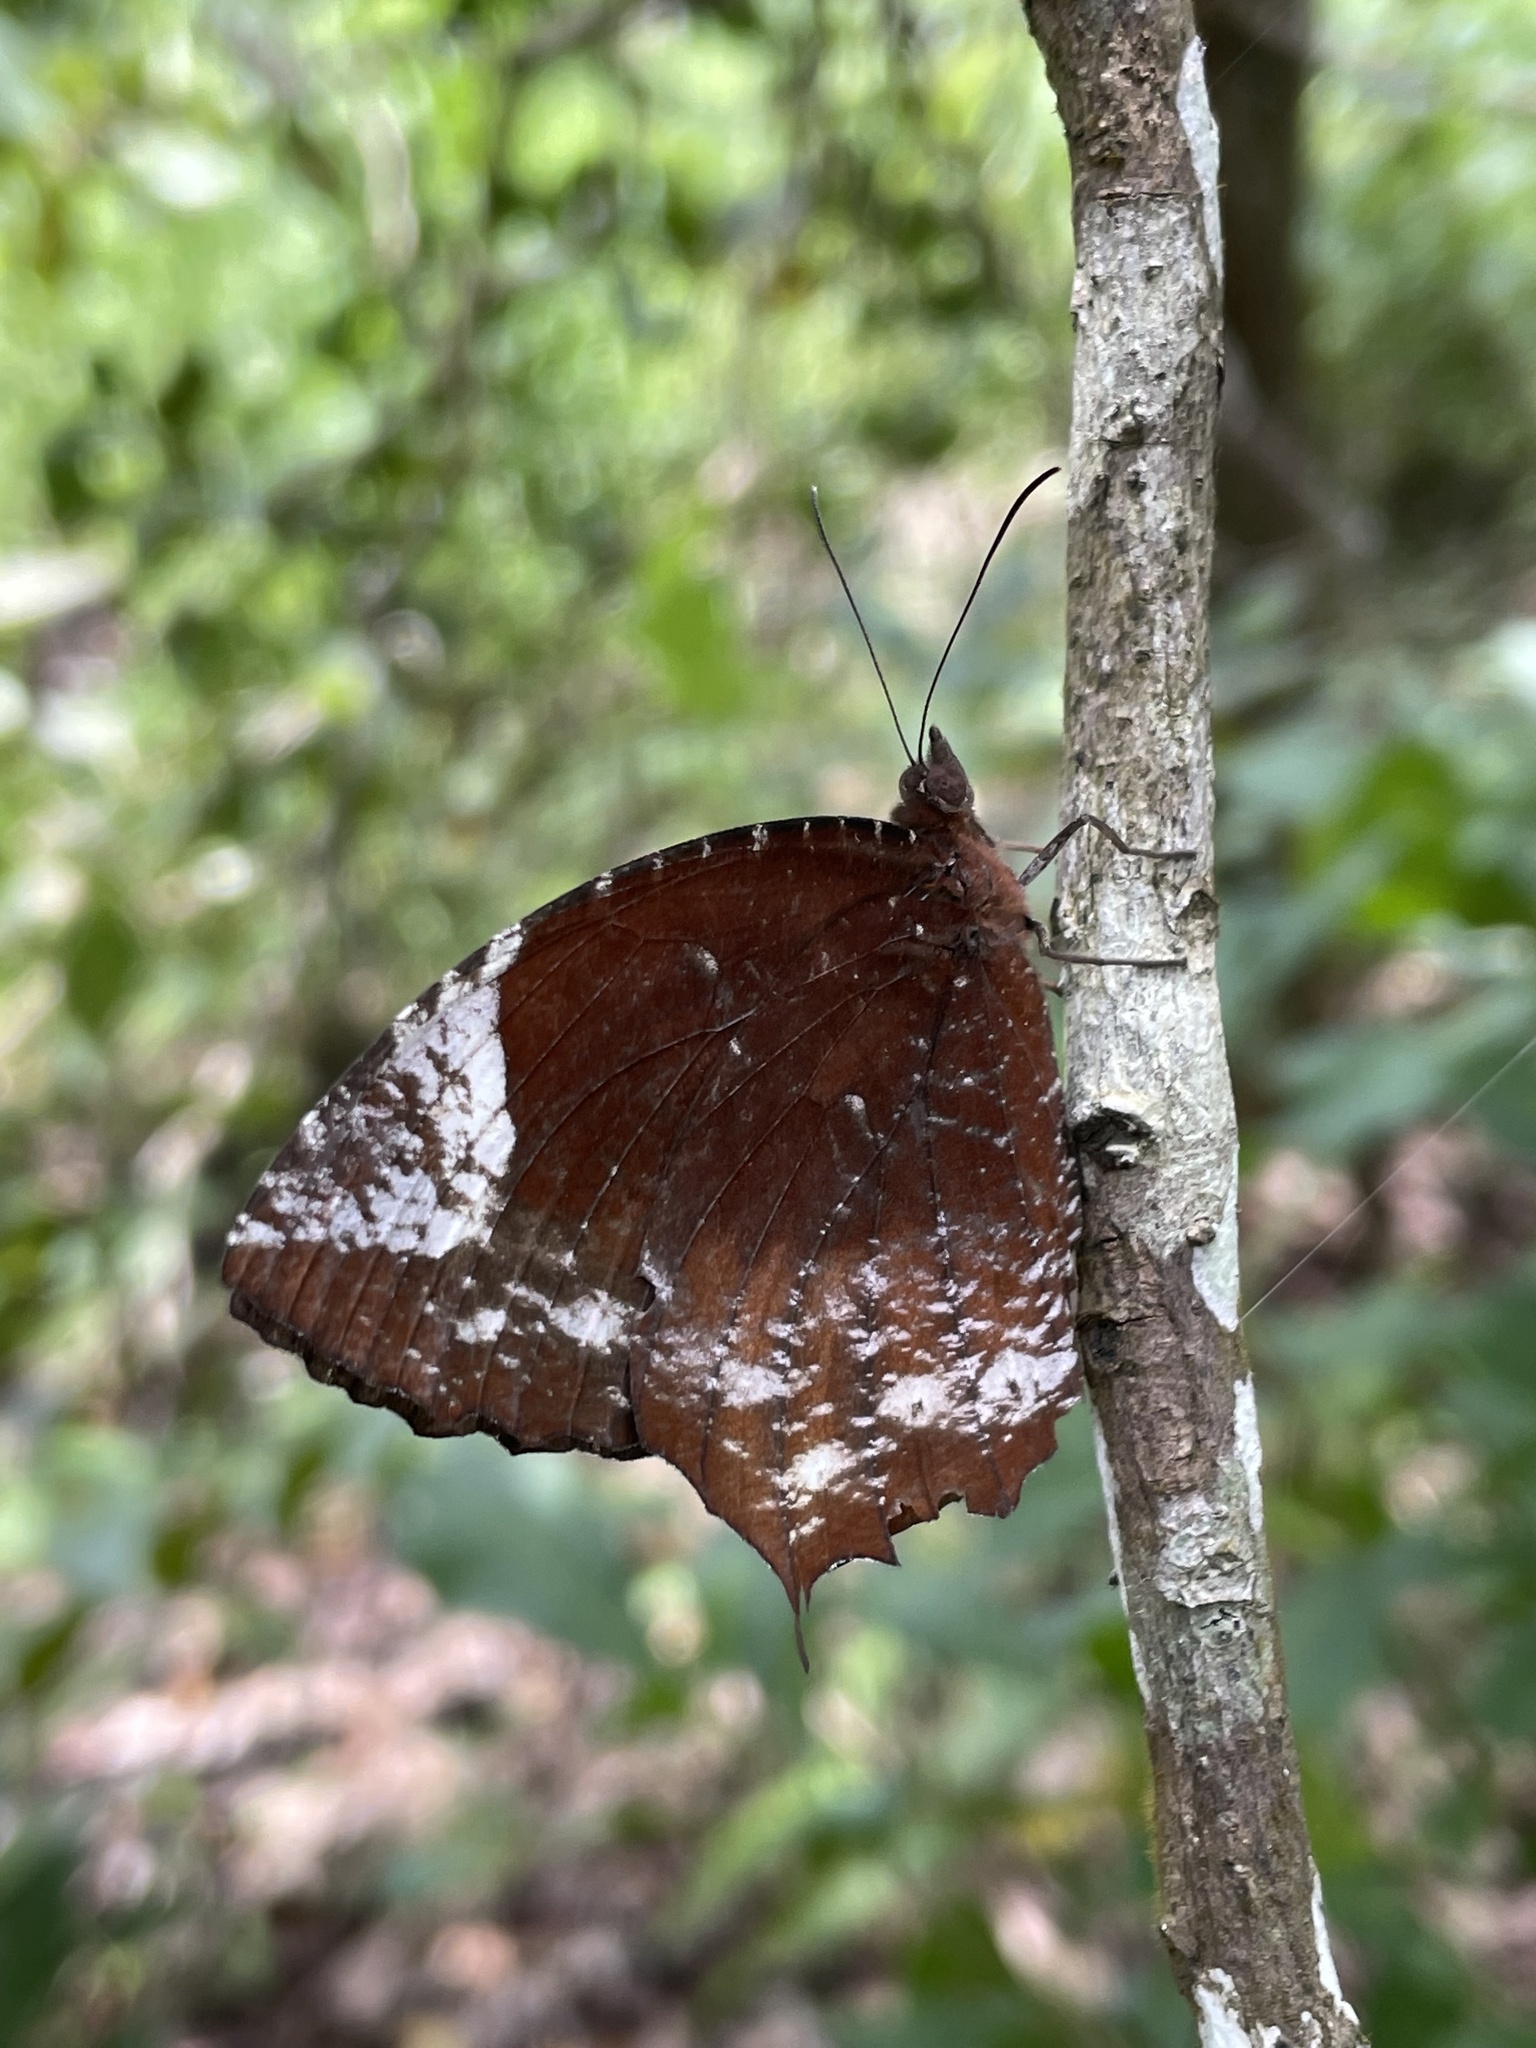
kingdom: Animalia
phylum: Arthropoda
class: Insecta
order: Lepidoptera
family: Nymphalidae
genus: Elymnias
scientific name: Elymnias caudata
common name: Tailed palmfly
